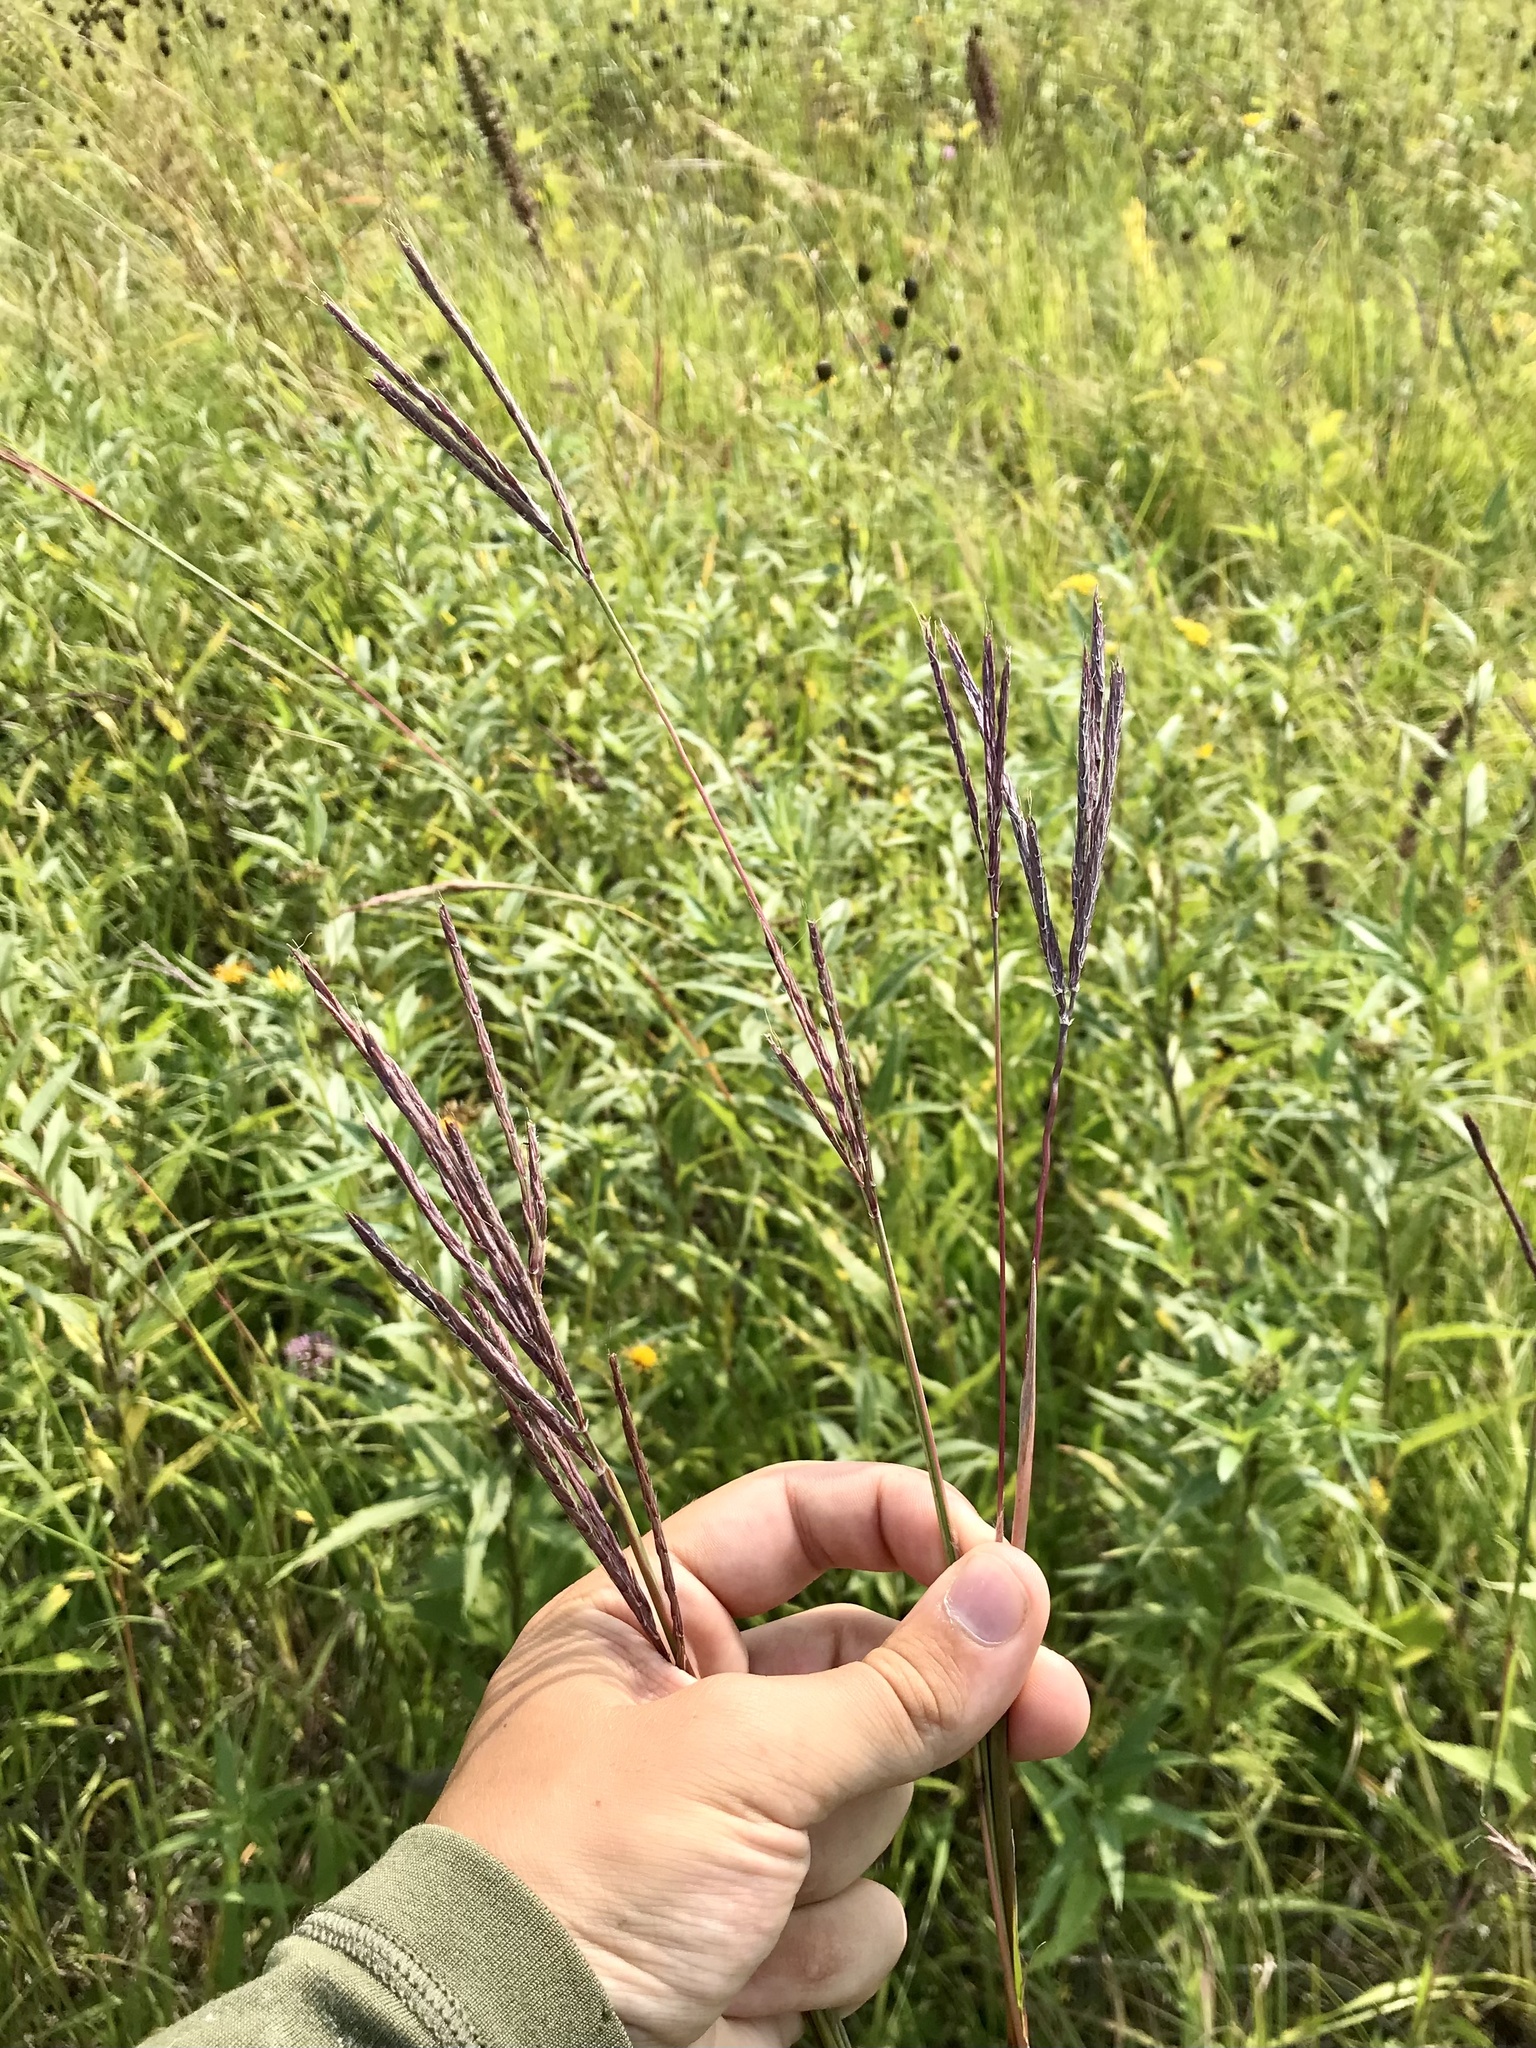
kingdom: Plantae
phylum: Tracheophyta
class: Liliopsida
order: Poales
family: Poaceae
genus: Andropogon
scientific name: Andropogon gerardi
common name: Big bluestem
